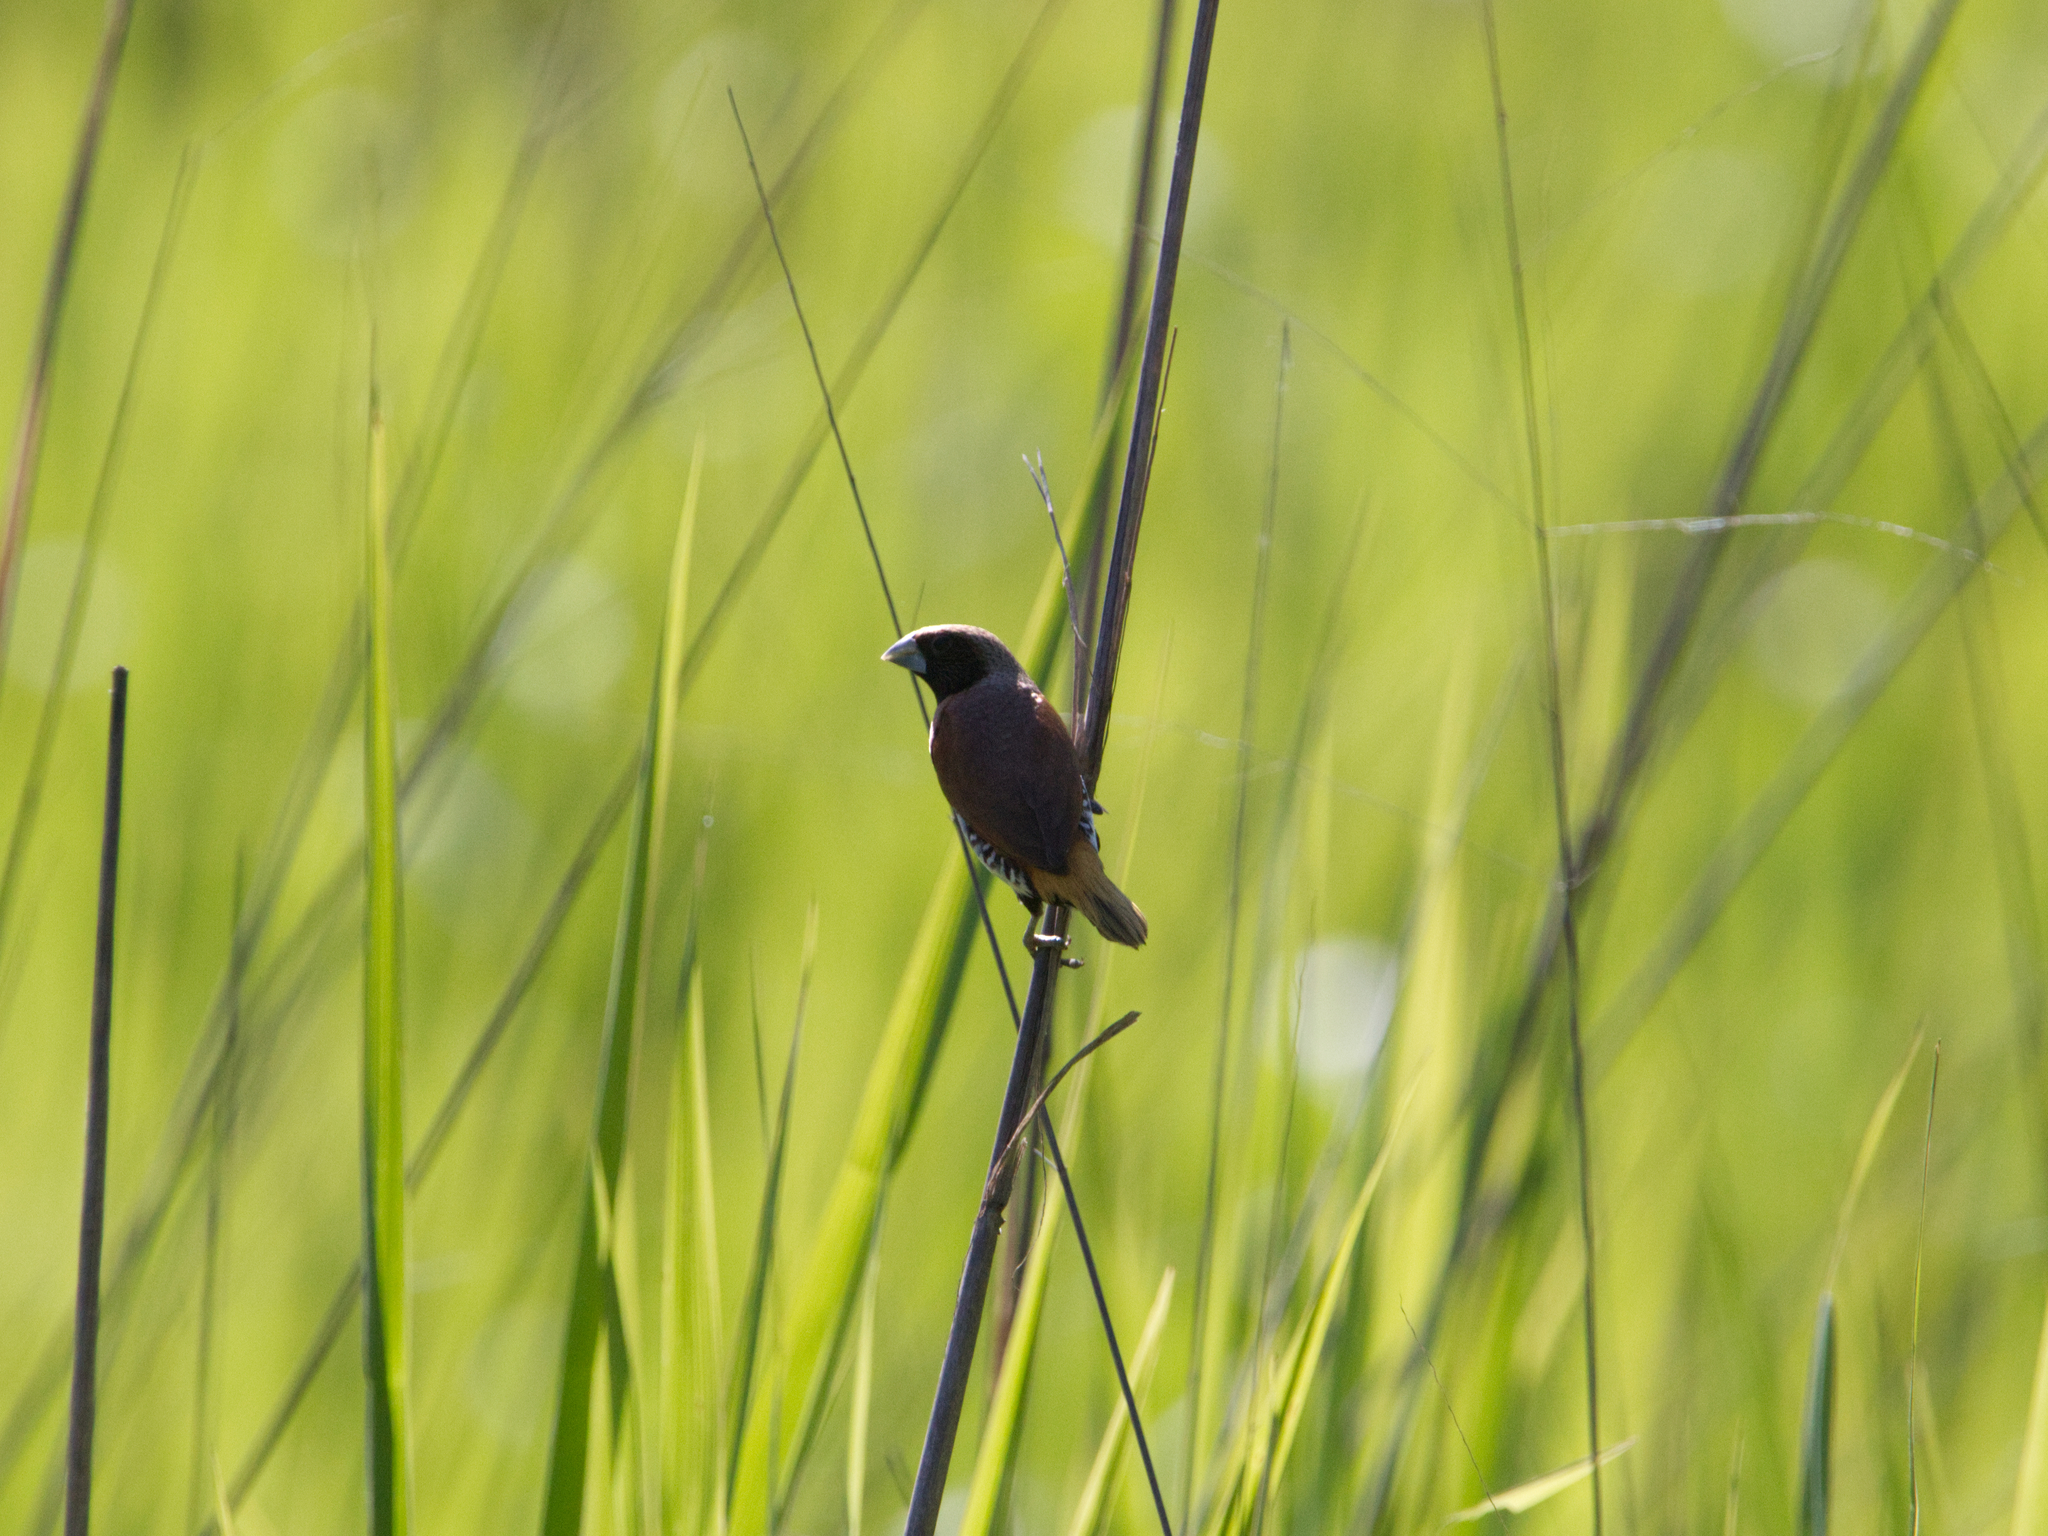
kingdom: Animalia
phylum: Chordata
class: Aves
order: Passeriformes
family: Estrildidae
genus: Lonchura
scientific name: Lonchura castaneothorax
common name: Chestnut-breasted mannikin
